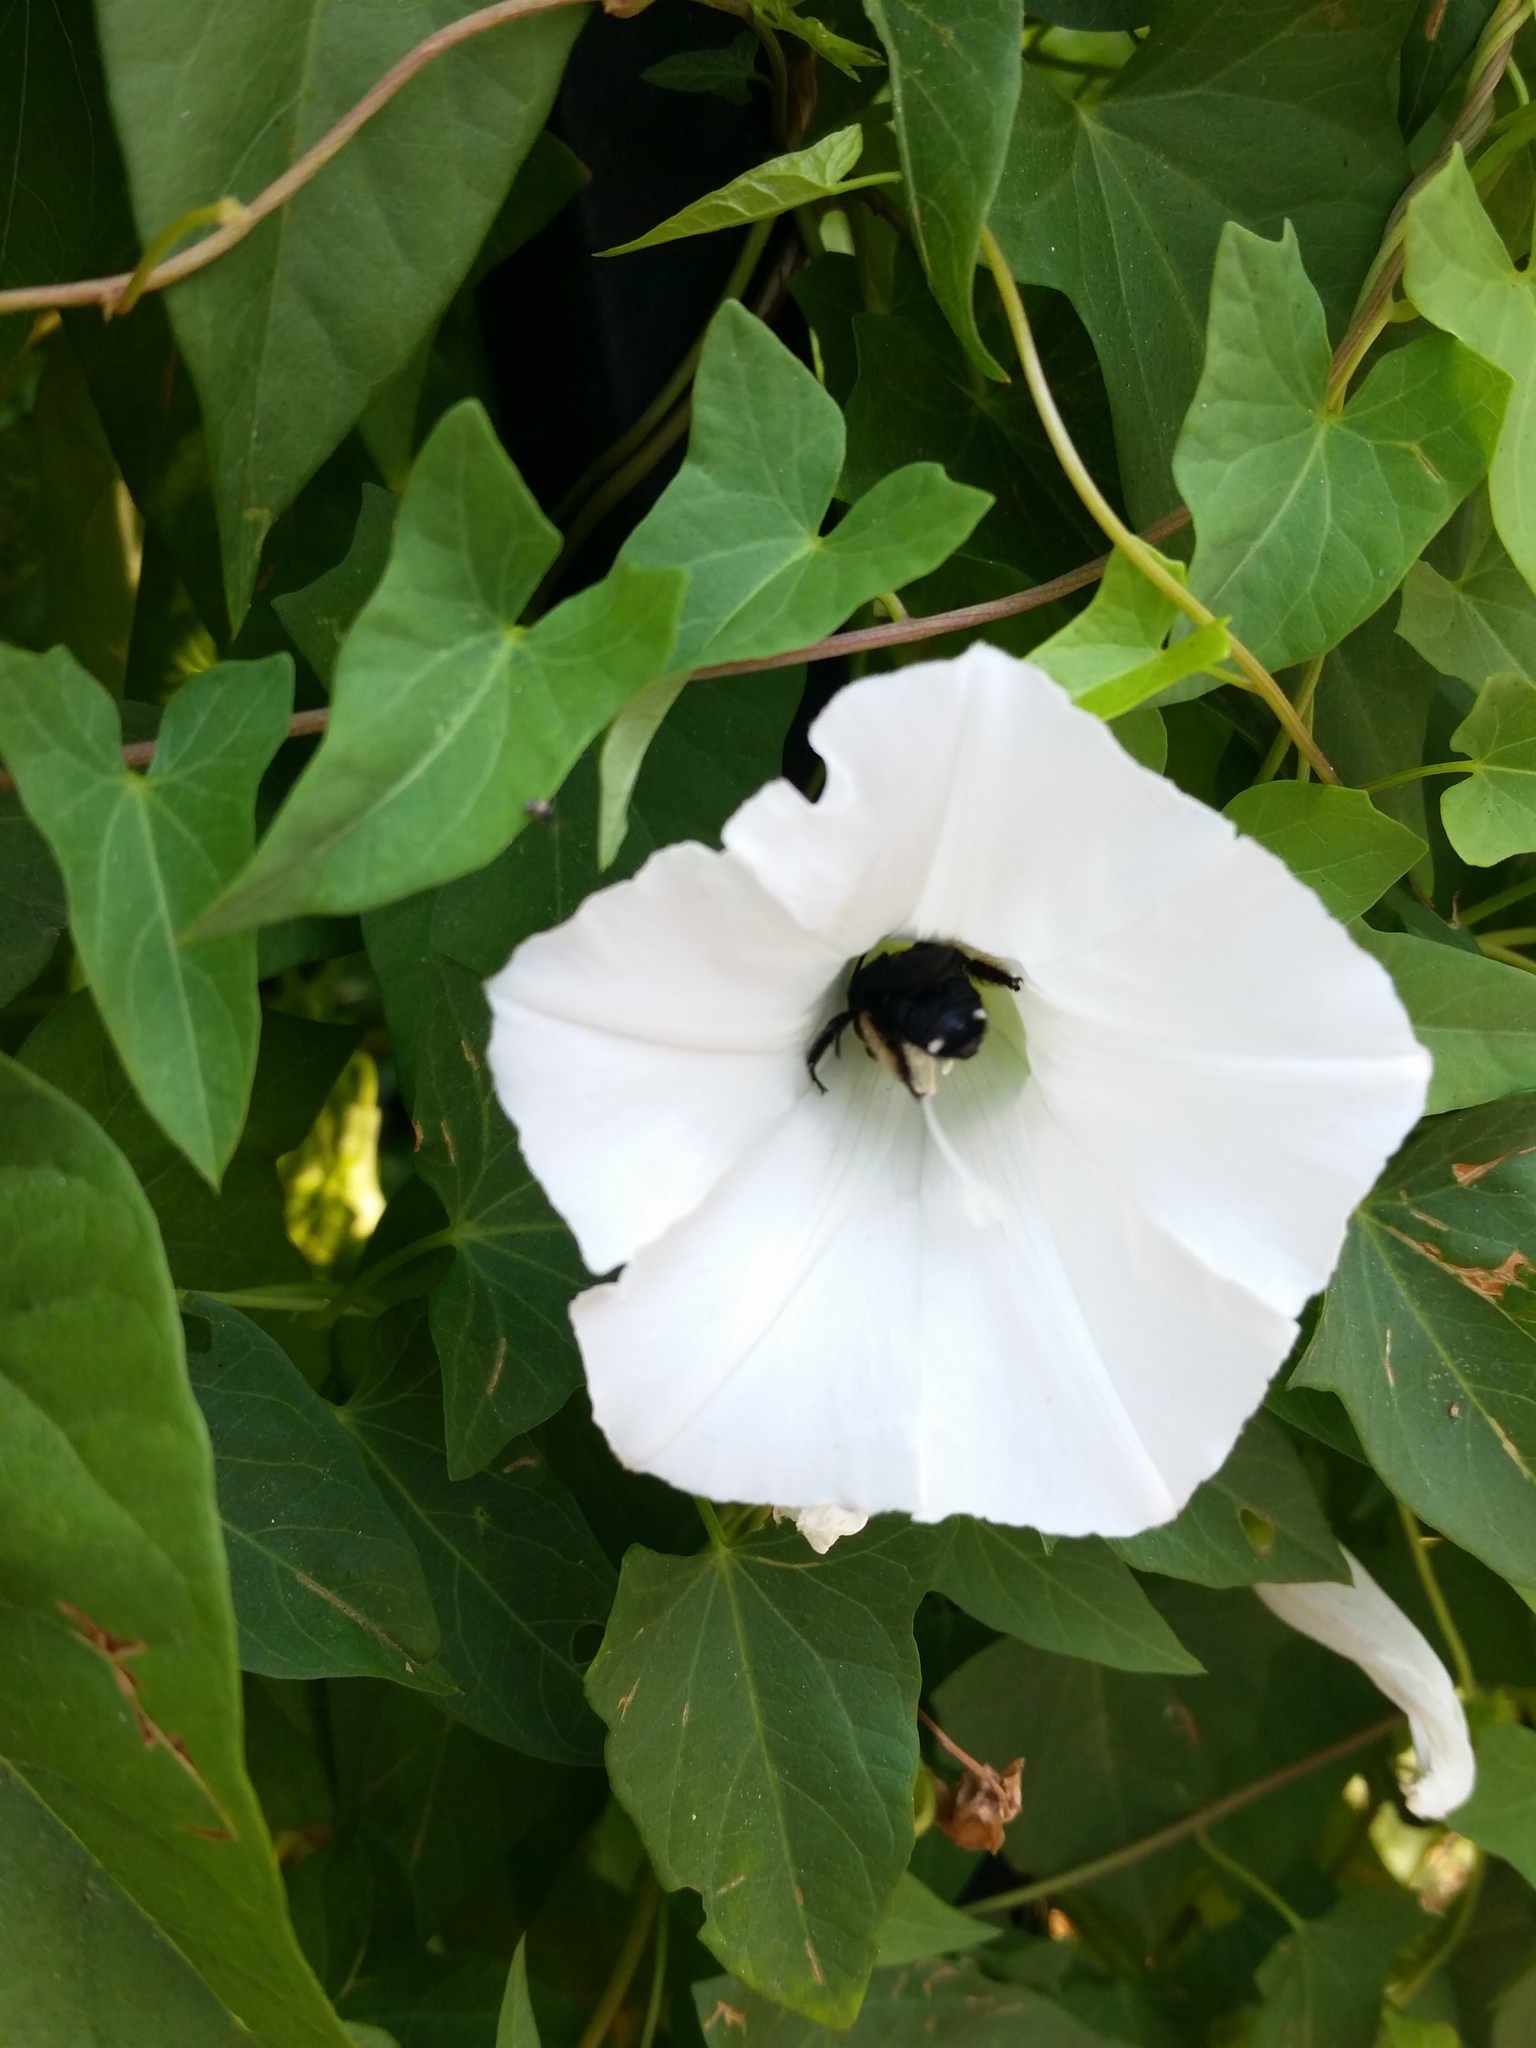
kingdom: Animalia
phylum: Arthropoda
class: Insecta
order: Hymenoptera
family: Apidae
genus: Melissodes
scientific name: Melissodes bimaculatus
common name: Two-spotted long-horned bee
